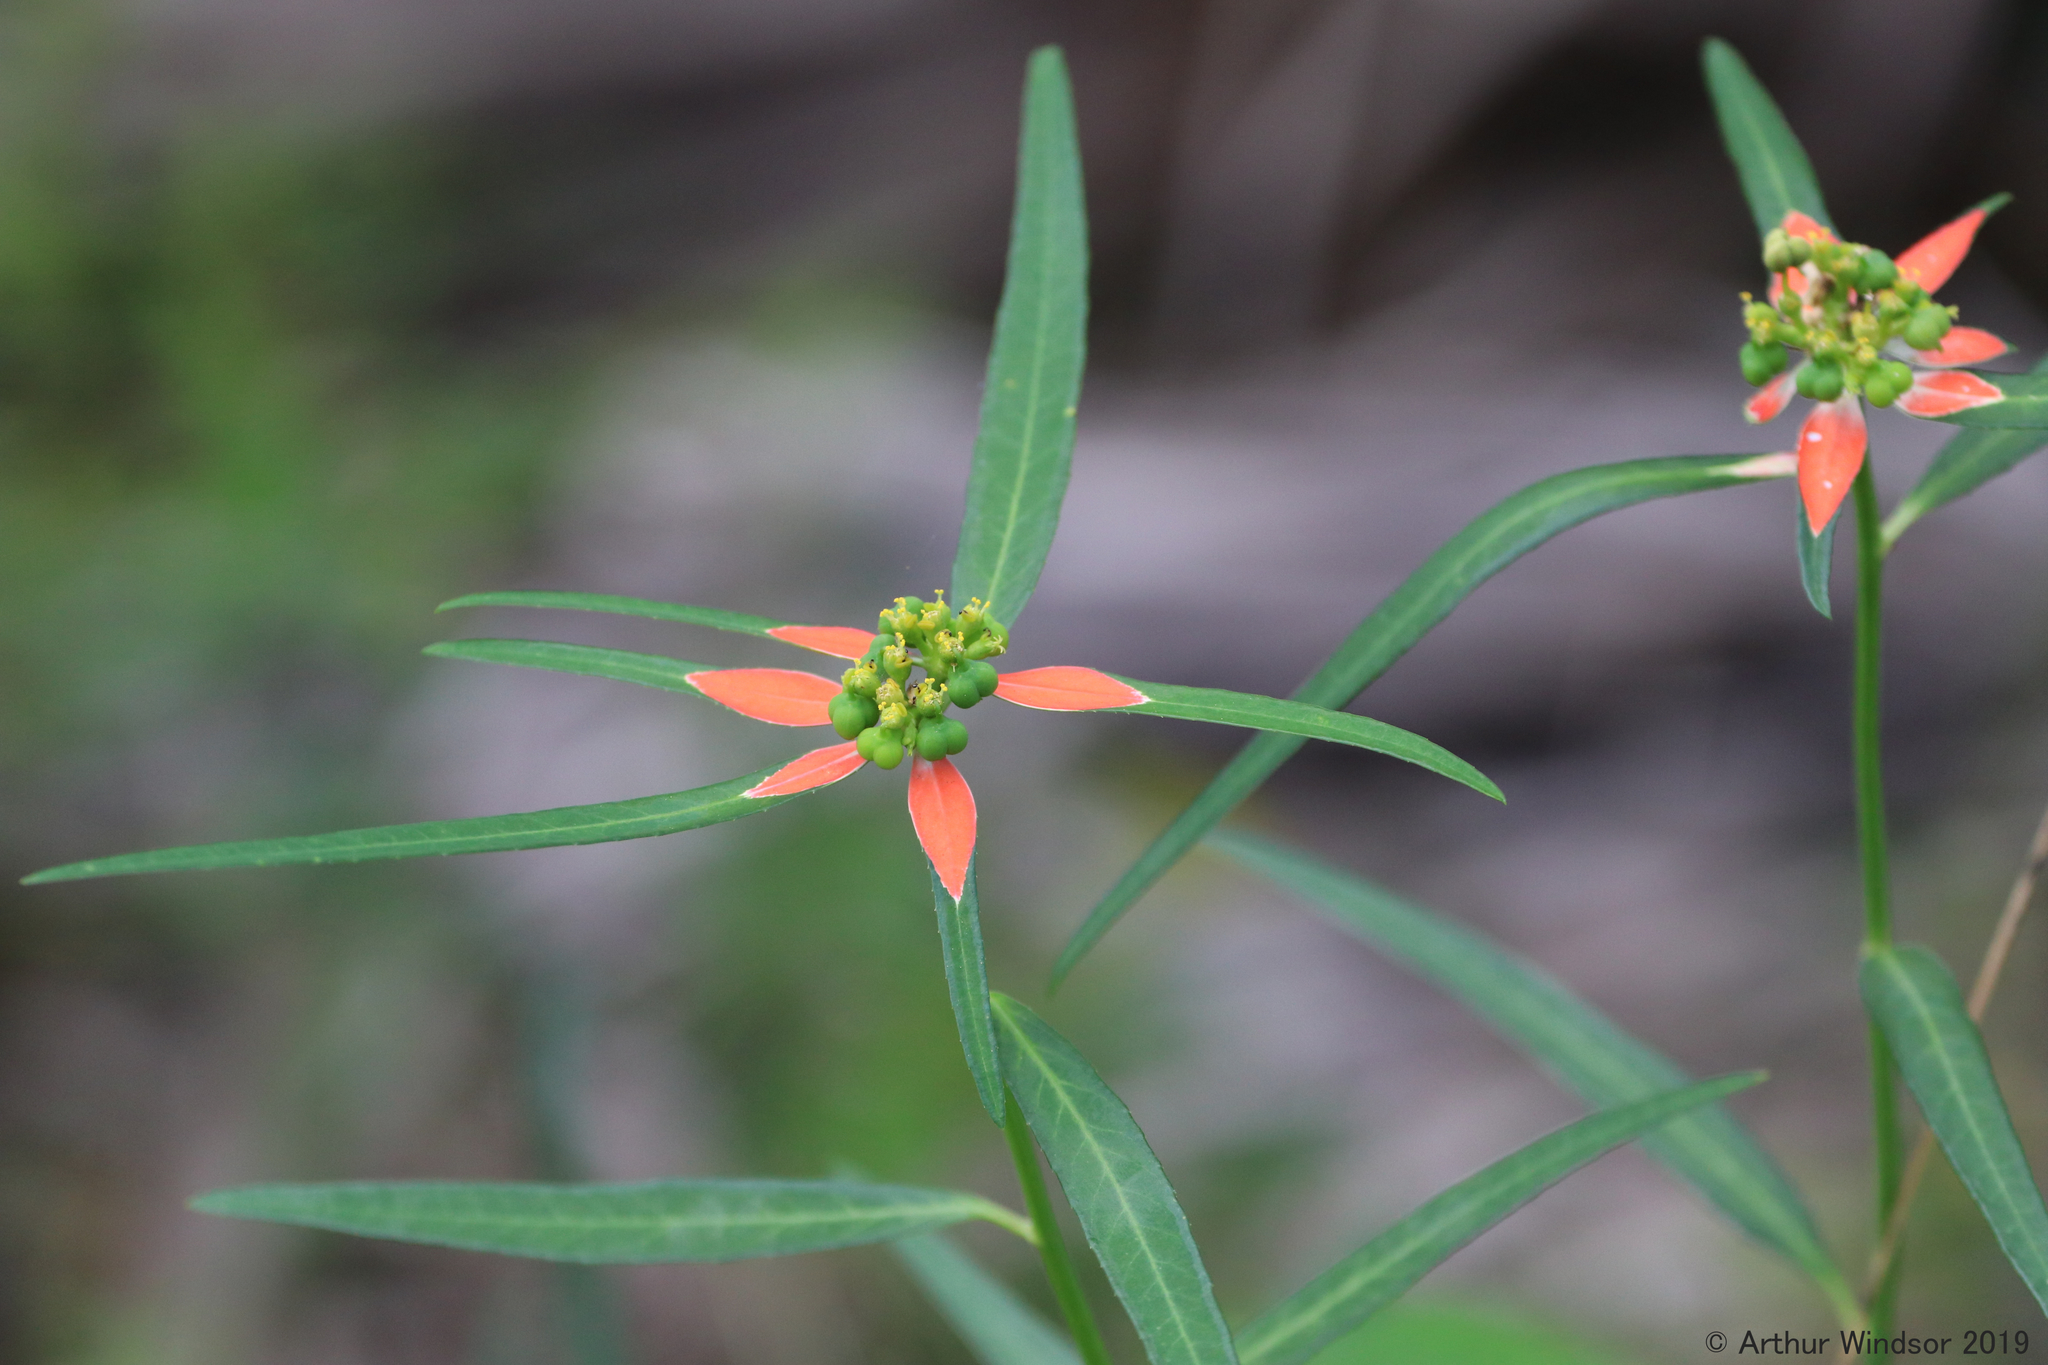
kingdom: Plantae
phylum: Tracheophyta
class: Magnoliopsida
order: Malpighiales
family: Euphorbiaceae
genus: Euphorbia
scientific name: Euphorbia heterophylla
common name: Mexican fireplant
